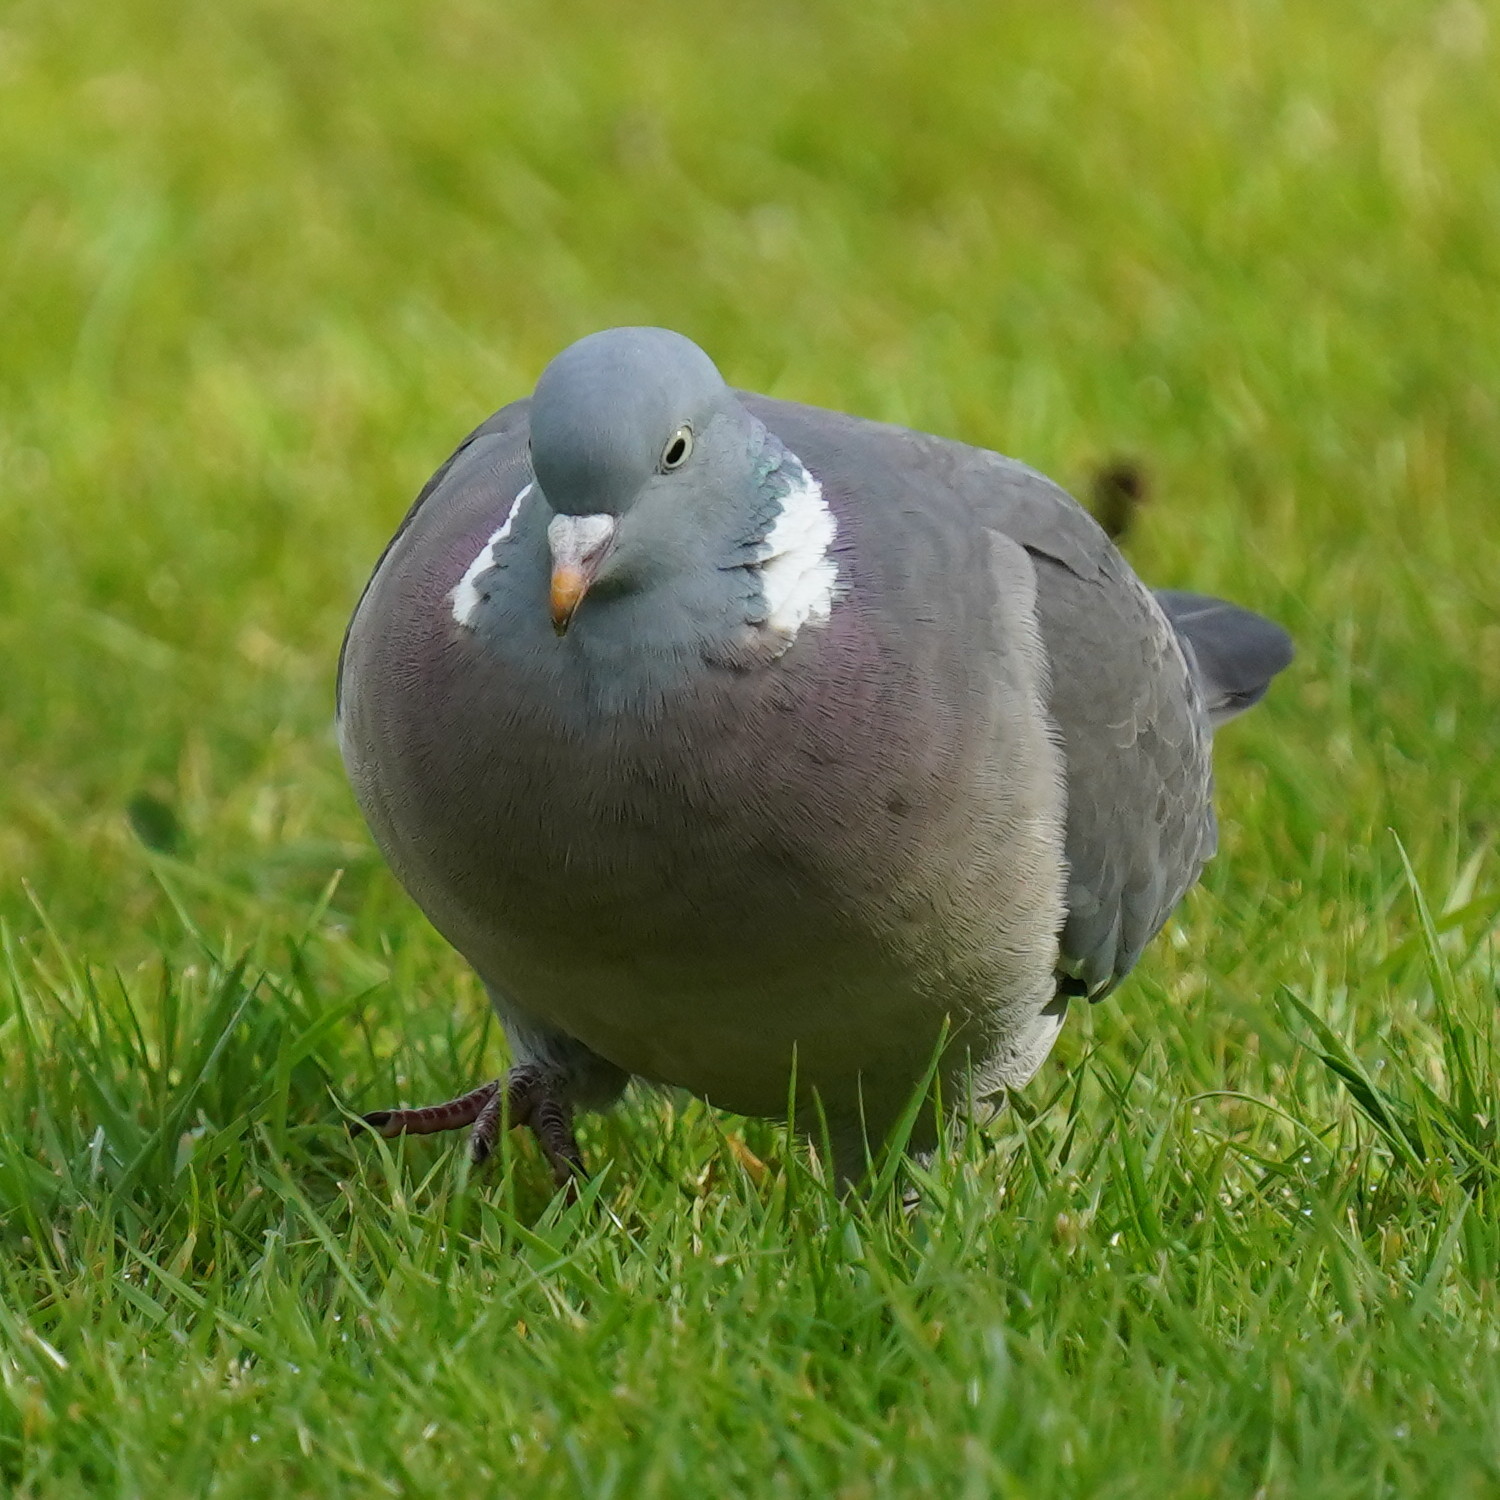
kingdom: Animalia
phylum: Chordata
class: Aves
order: Columbiformes
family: Columbidae
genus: Columba
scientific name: Columba palumbus
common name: Common wood pigeon
